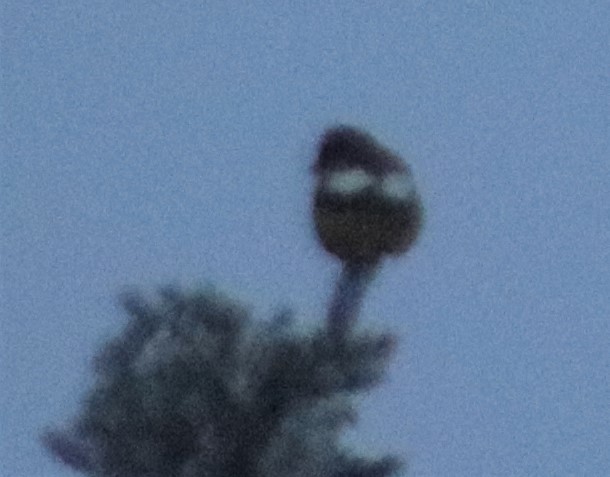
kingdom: Animalia
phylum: Chordata
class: Aves
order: Passeriformes
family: Fringillidae
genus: Hesperiphona
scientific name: Hesperiphona vespertina
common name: Evening grosbeak
